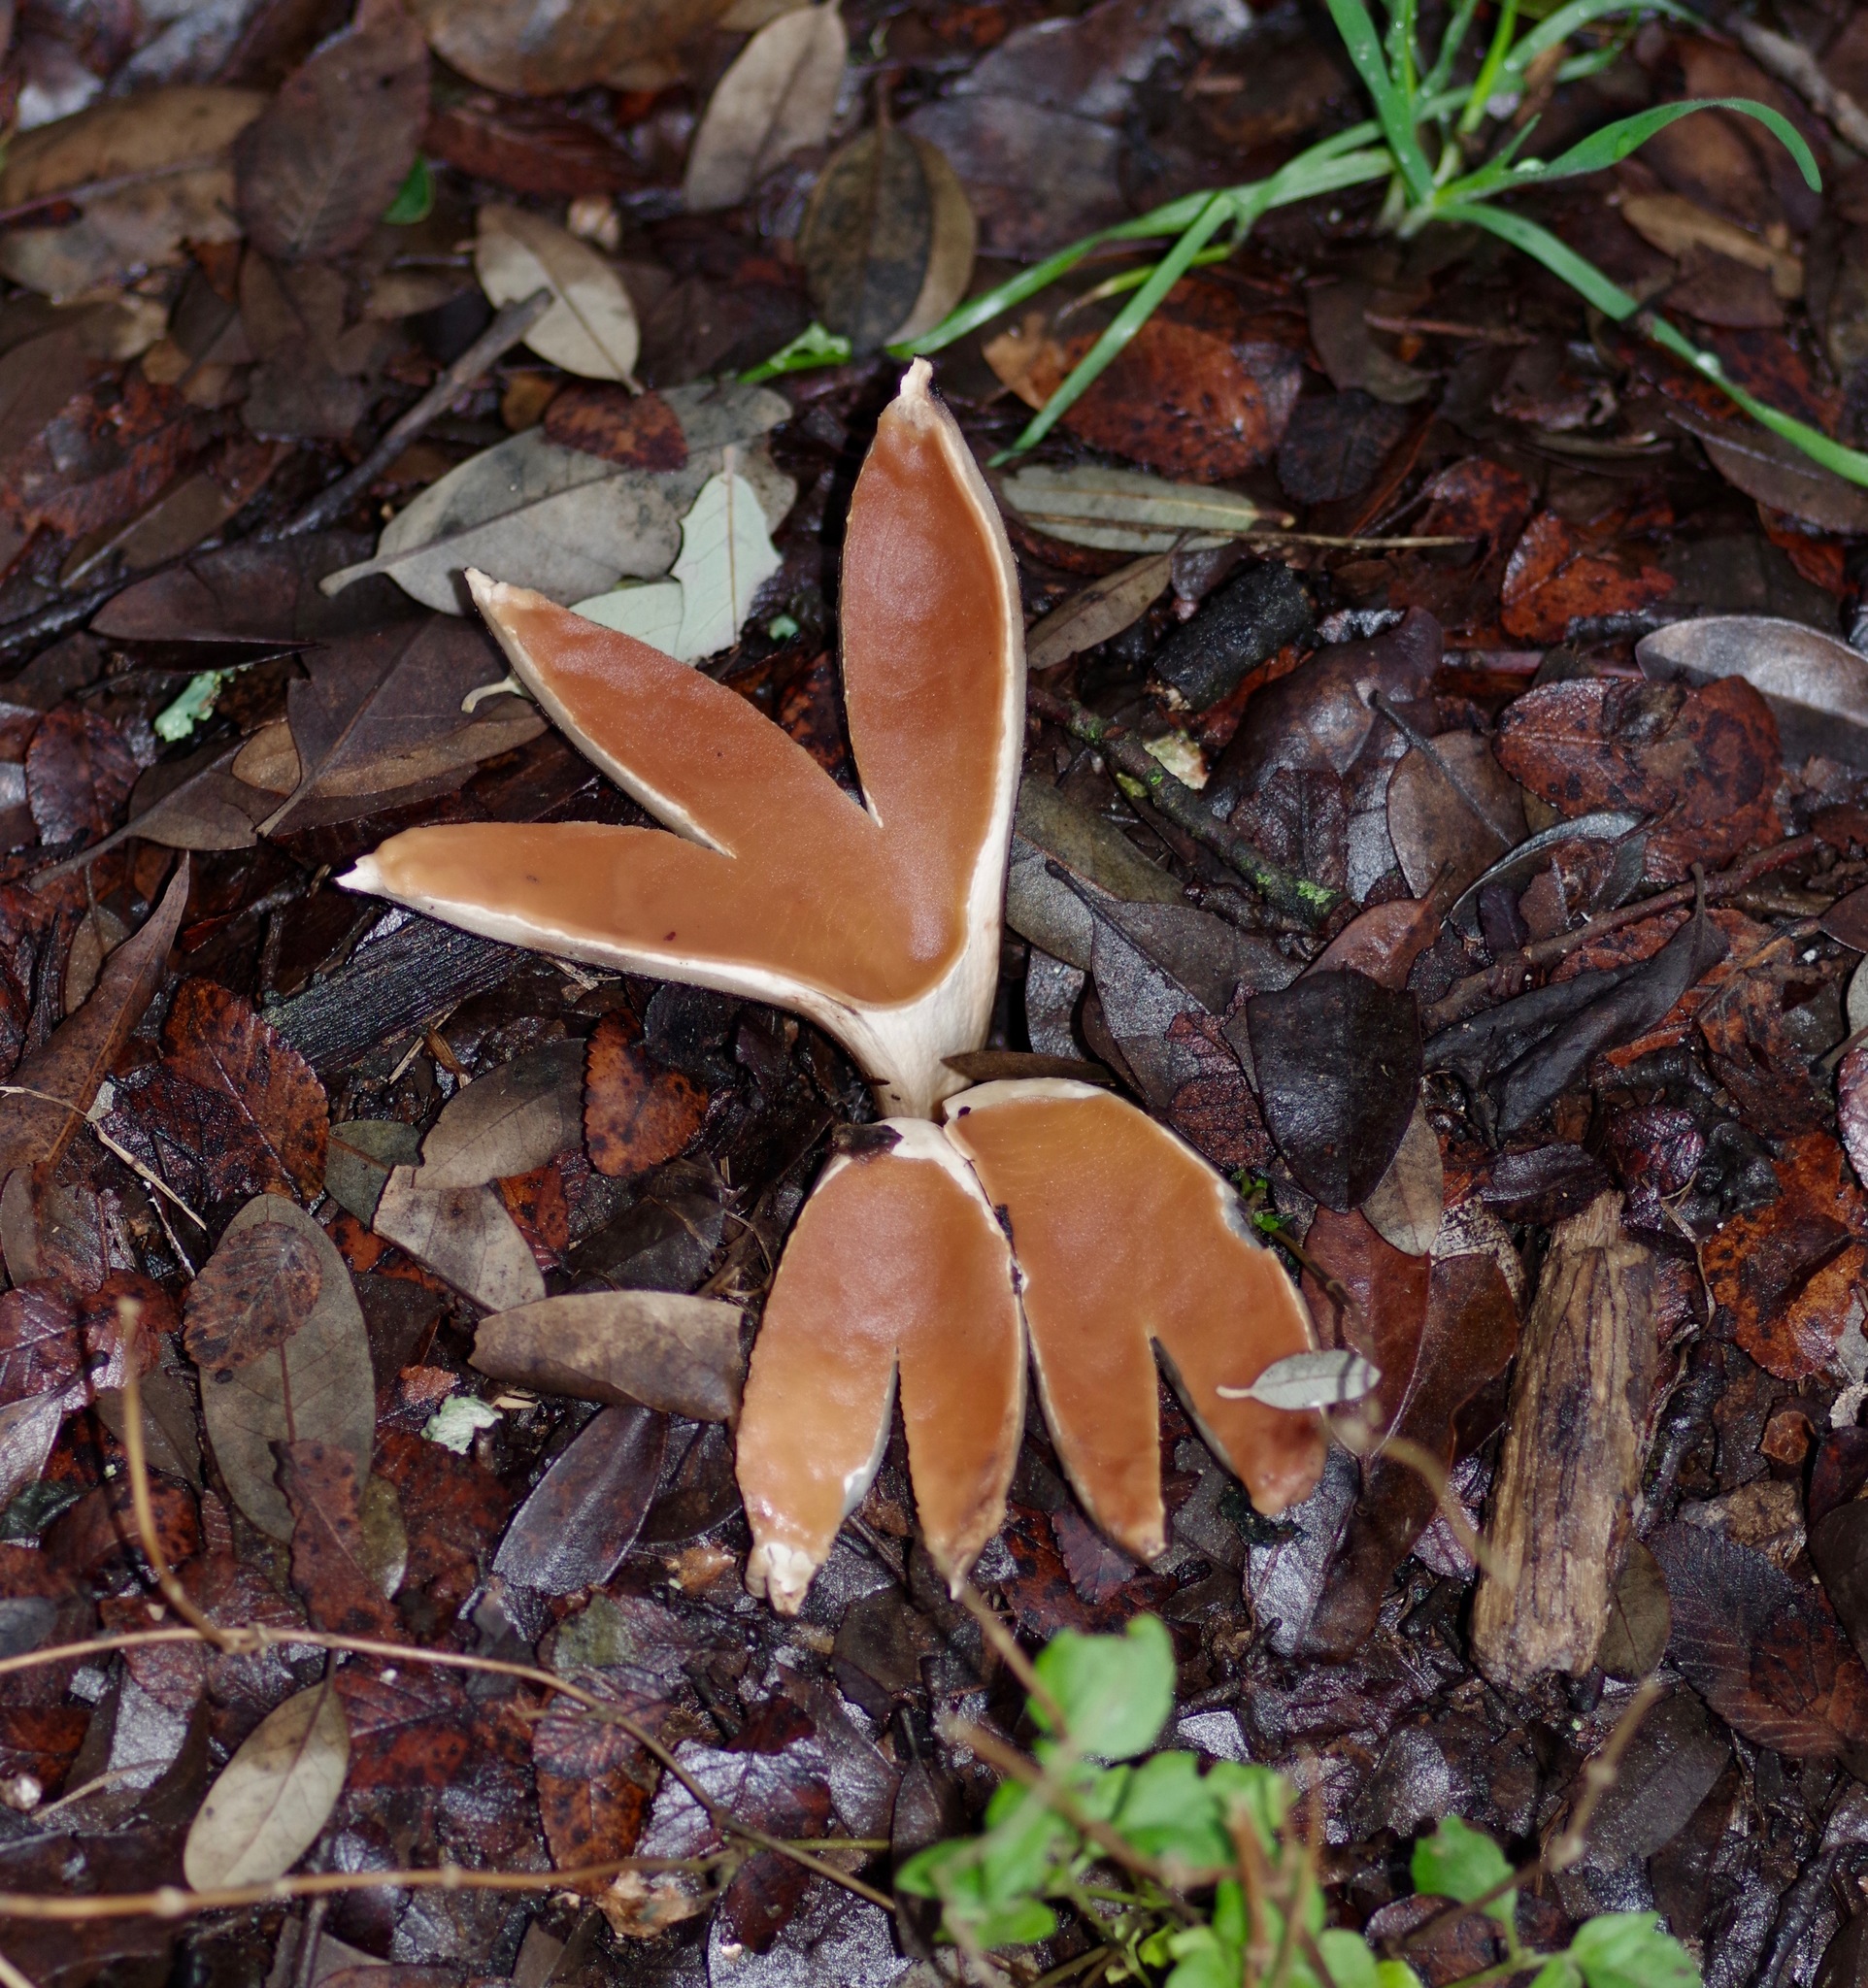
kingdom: Fungi
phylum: Ascomycota
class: Pezizomycetes
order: Pezizales
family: Chorioactidaceae
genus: Chorioactis
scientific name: Chorioactis geaster
